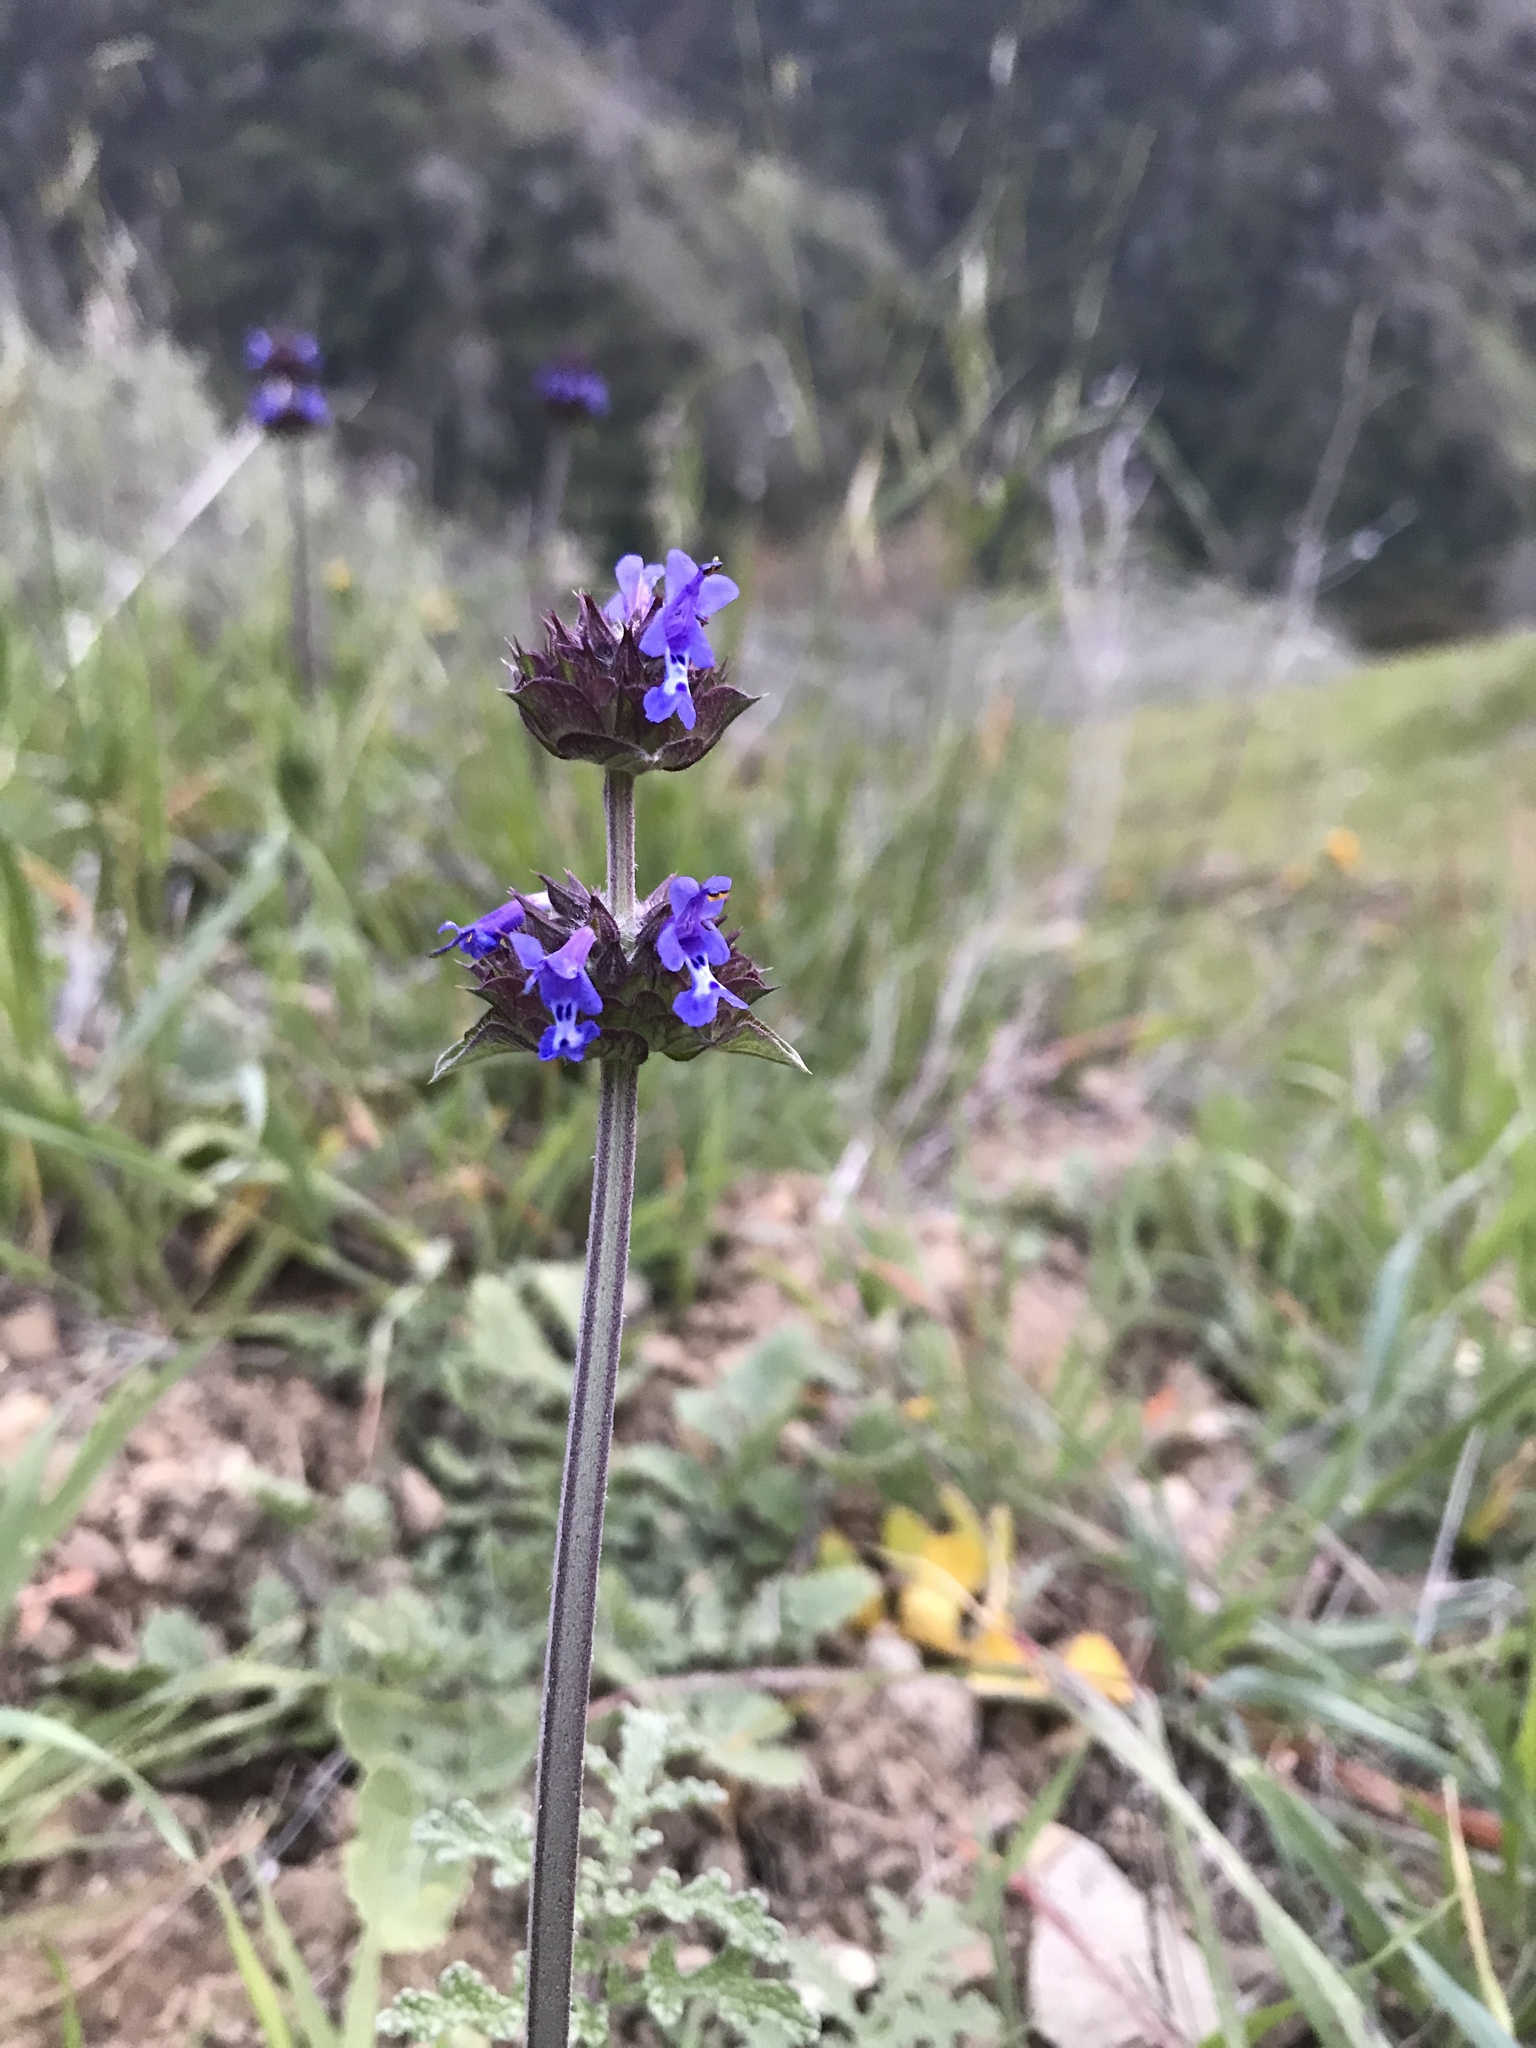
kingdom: Plantae
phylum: Tracheophyta
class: Magnoliopsida
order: Lamiales
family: Lamiaceae
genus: Salvia
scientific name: Salvia columbariae
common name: Chia
